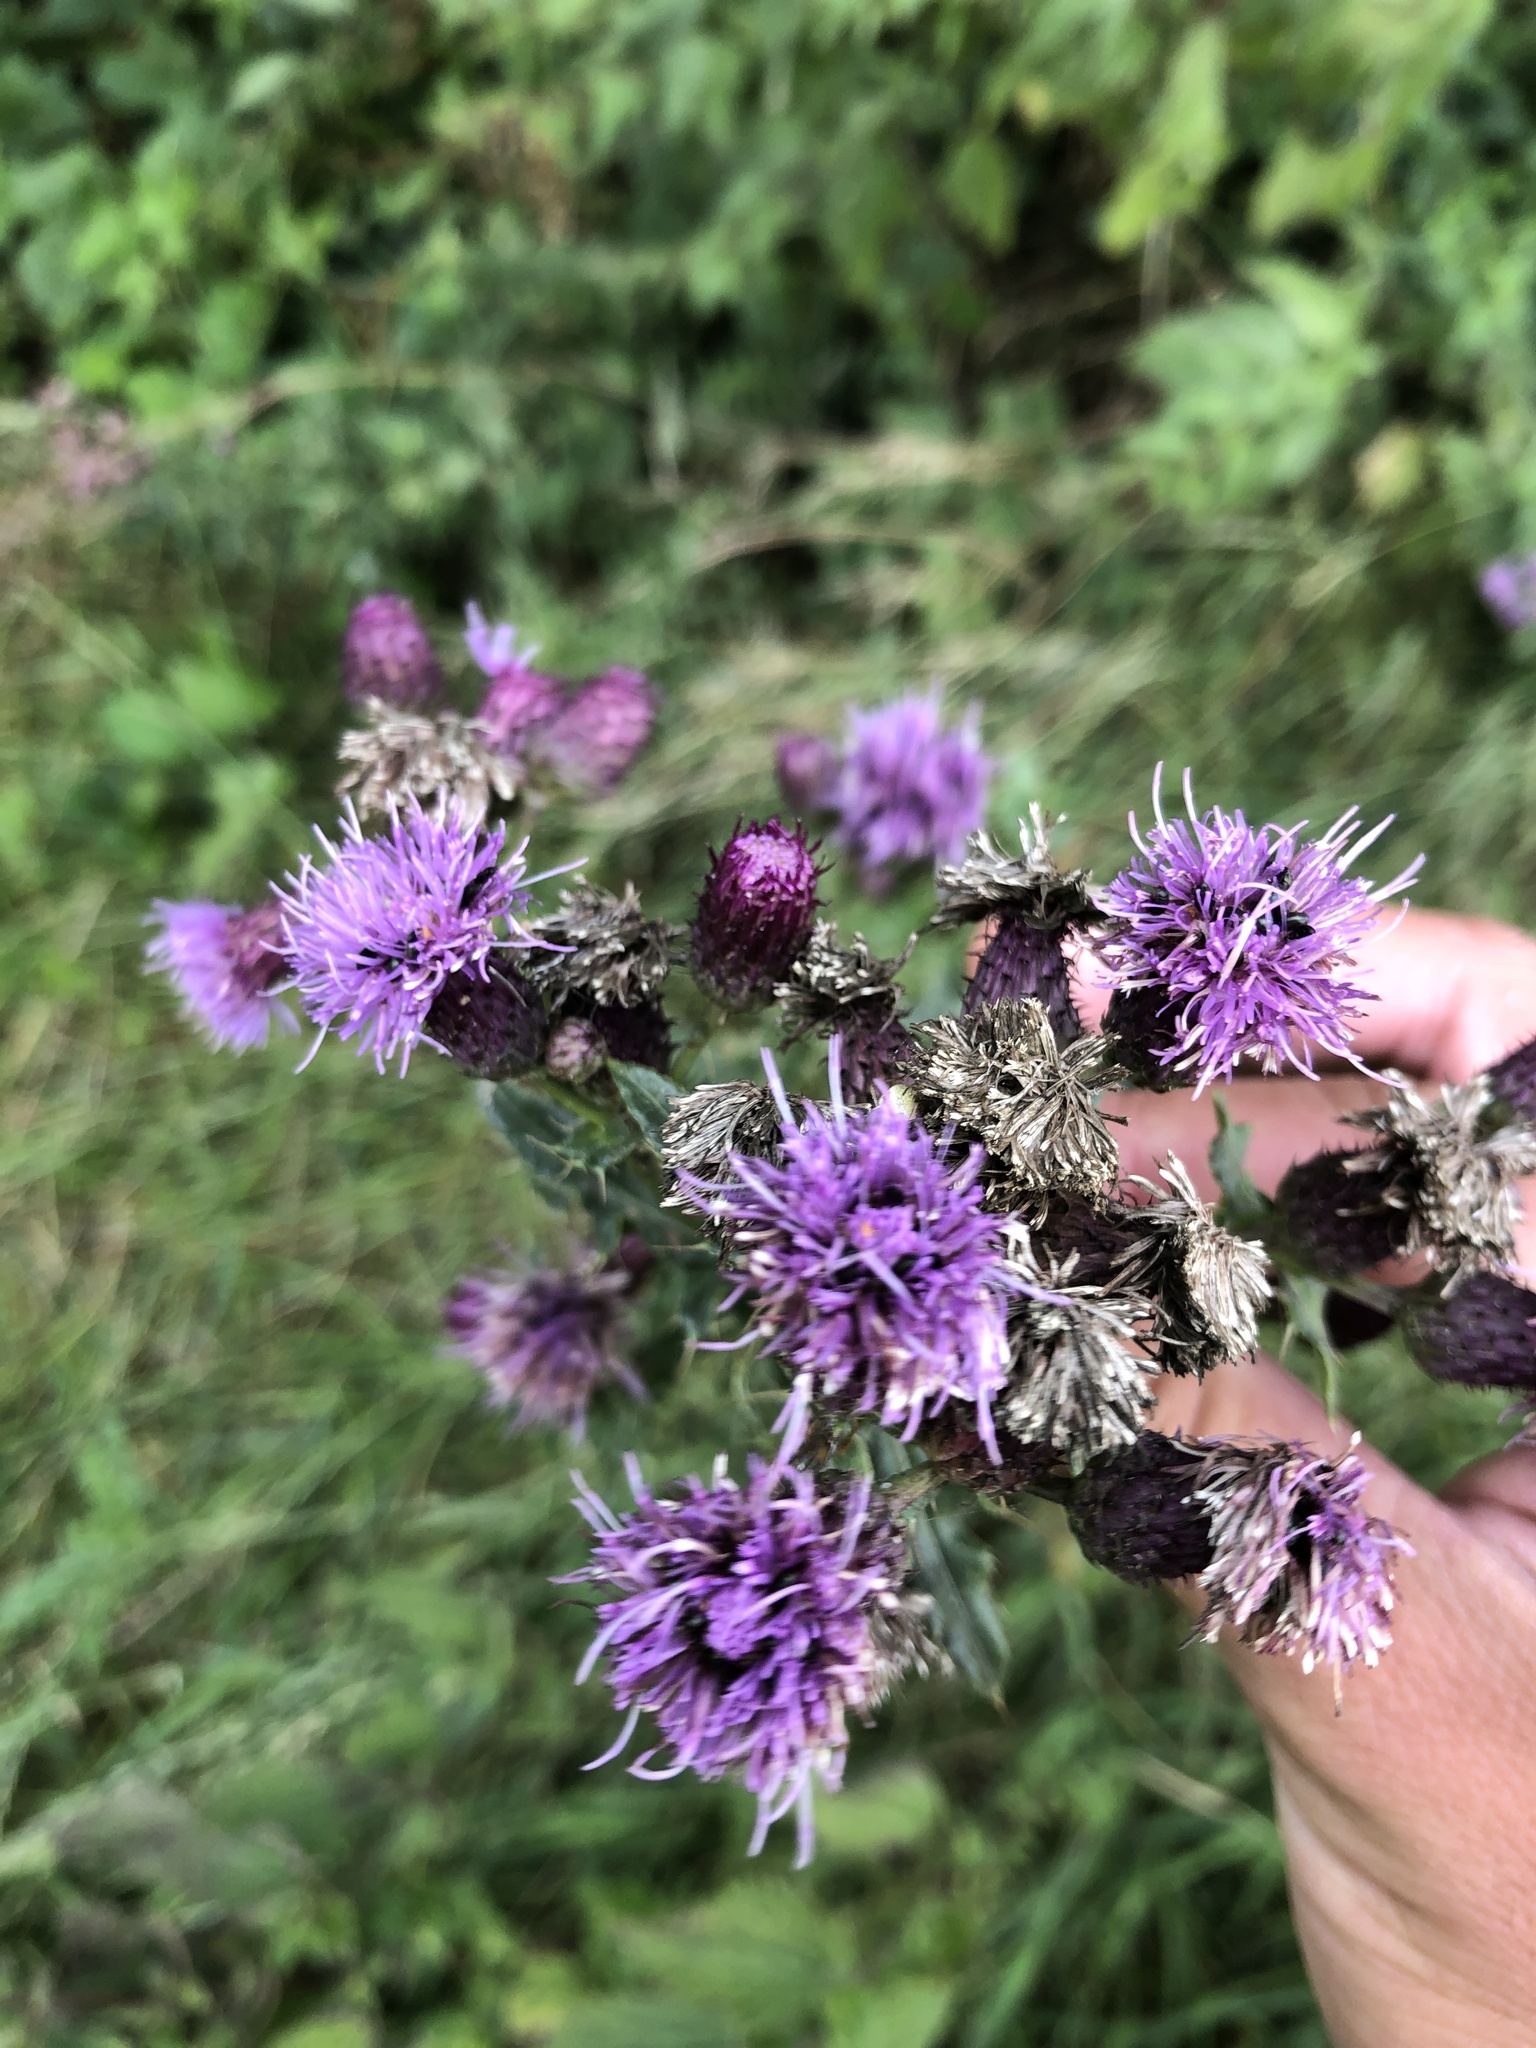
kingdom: Plantae
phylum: Tracheophyta
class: Magnoliopsida
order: Asterales
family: Asteraceae
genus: Cirsium
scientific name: Cirsium arvense
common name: Creeping thistle
